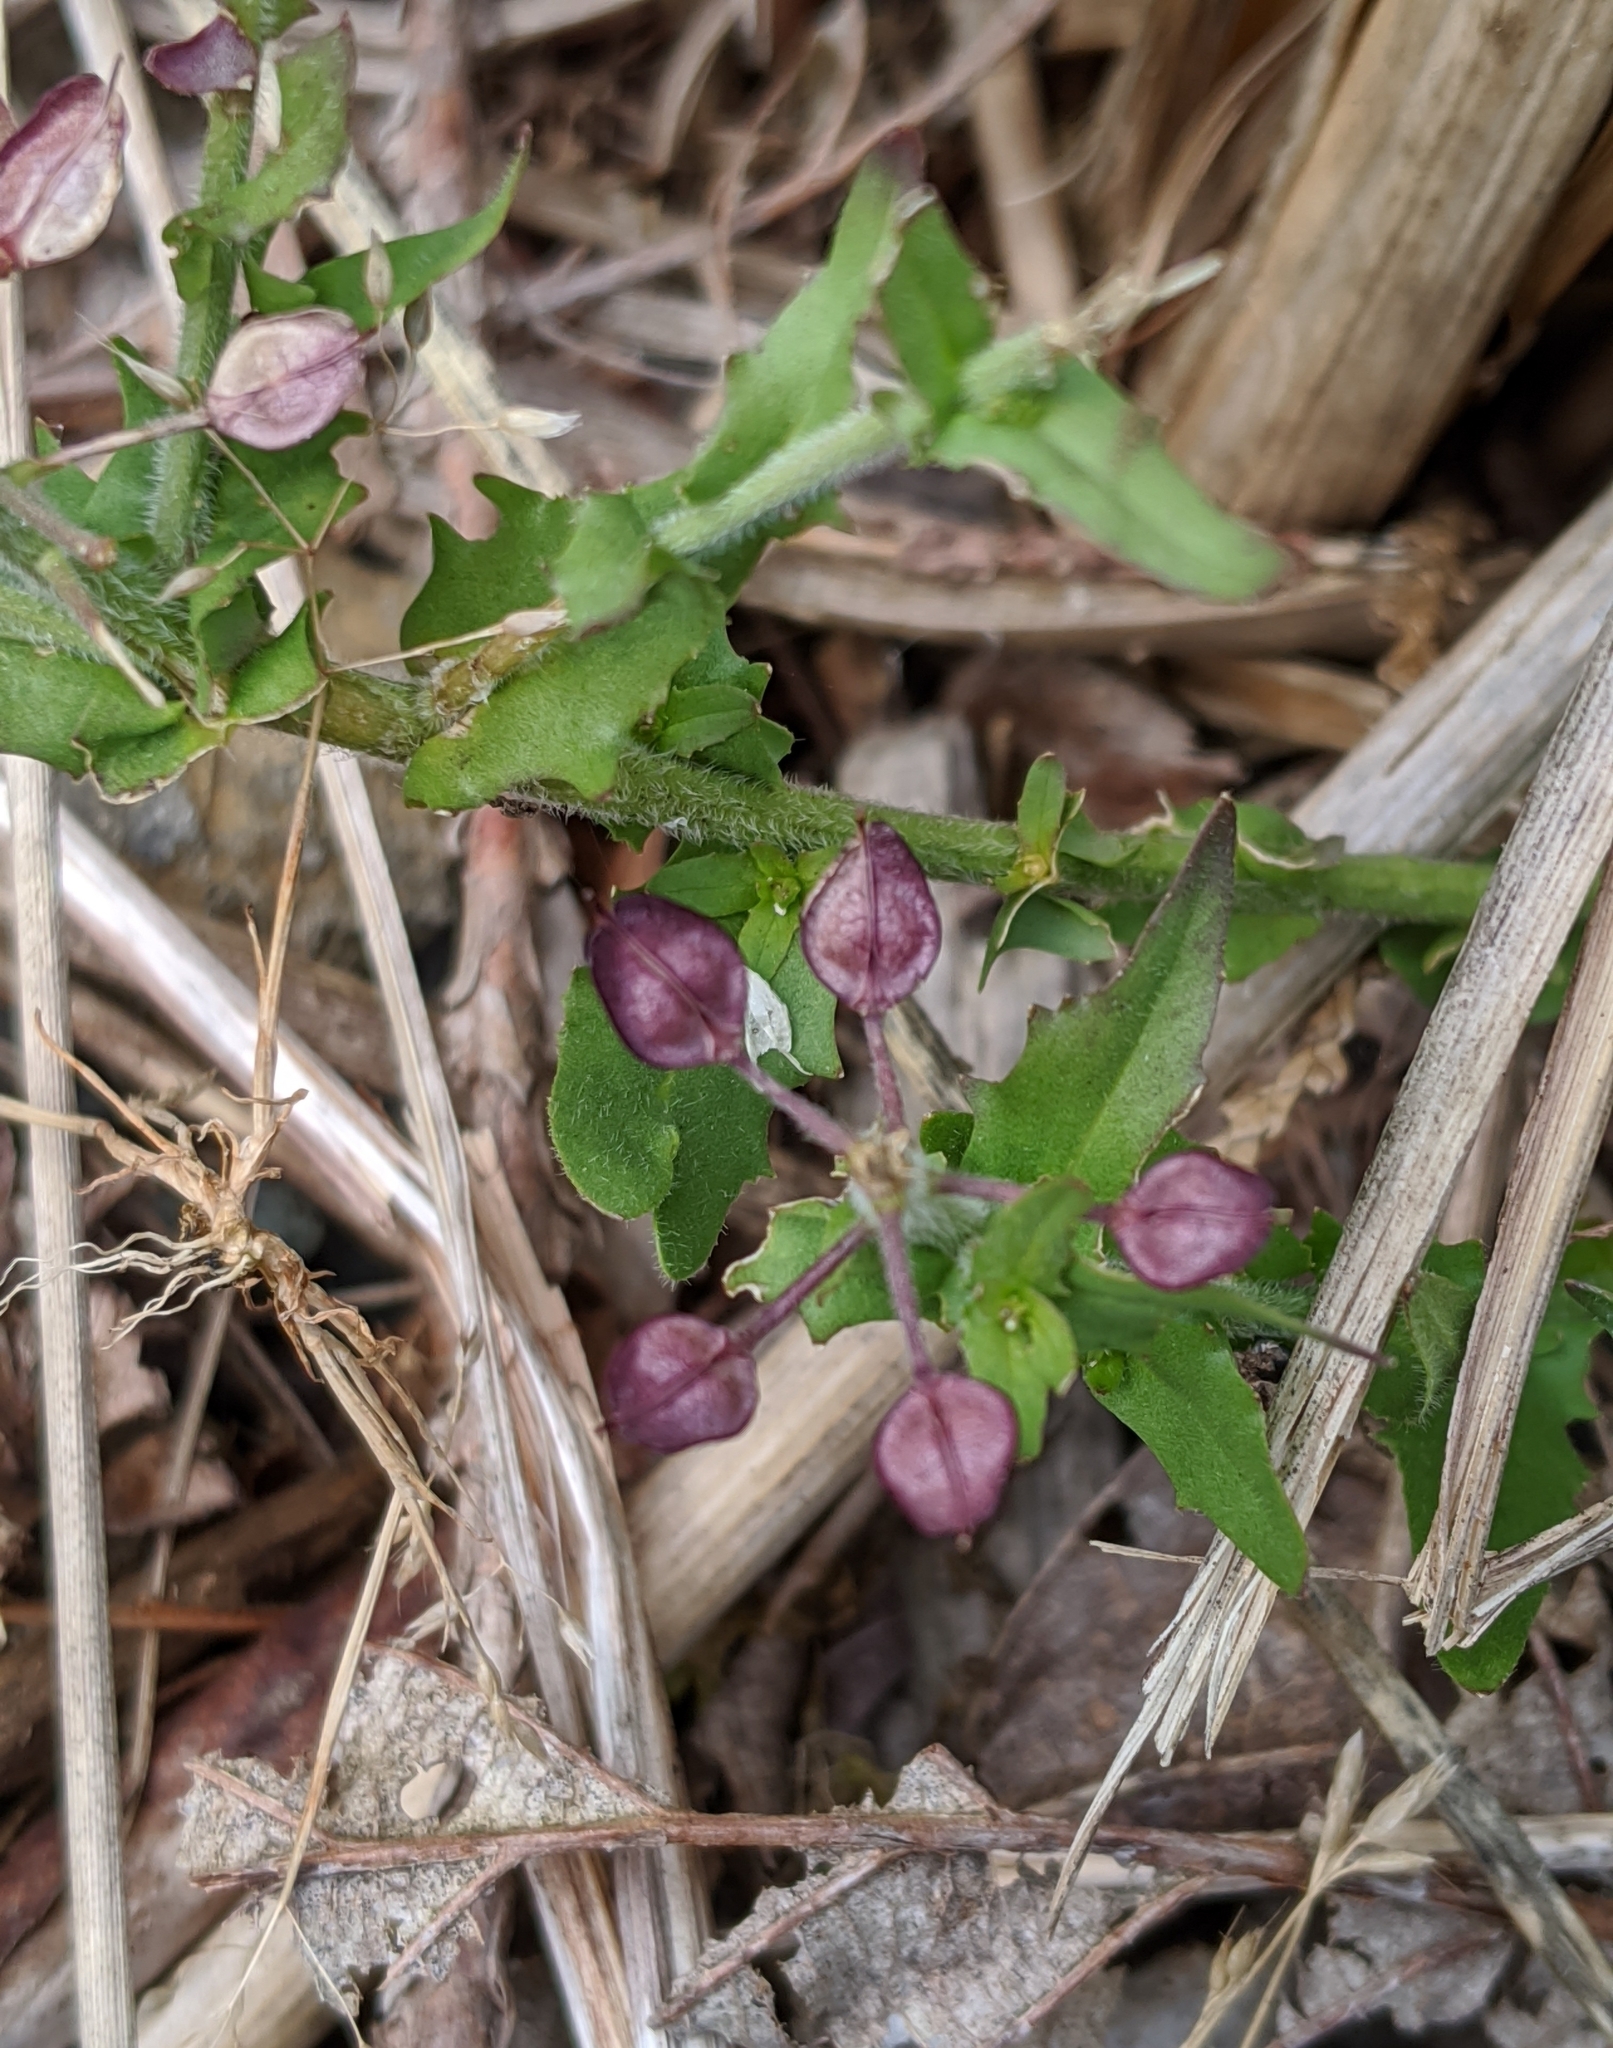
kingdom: Plantae
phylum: Tracheophyta
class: Magnoliopsida
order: Brassicales
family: Brassicaceae
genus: Capsella
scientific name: Capsella bursa-pastoris
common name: Shepherd's purse
